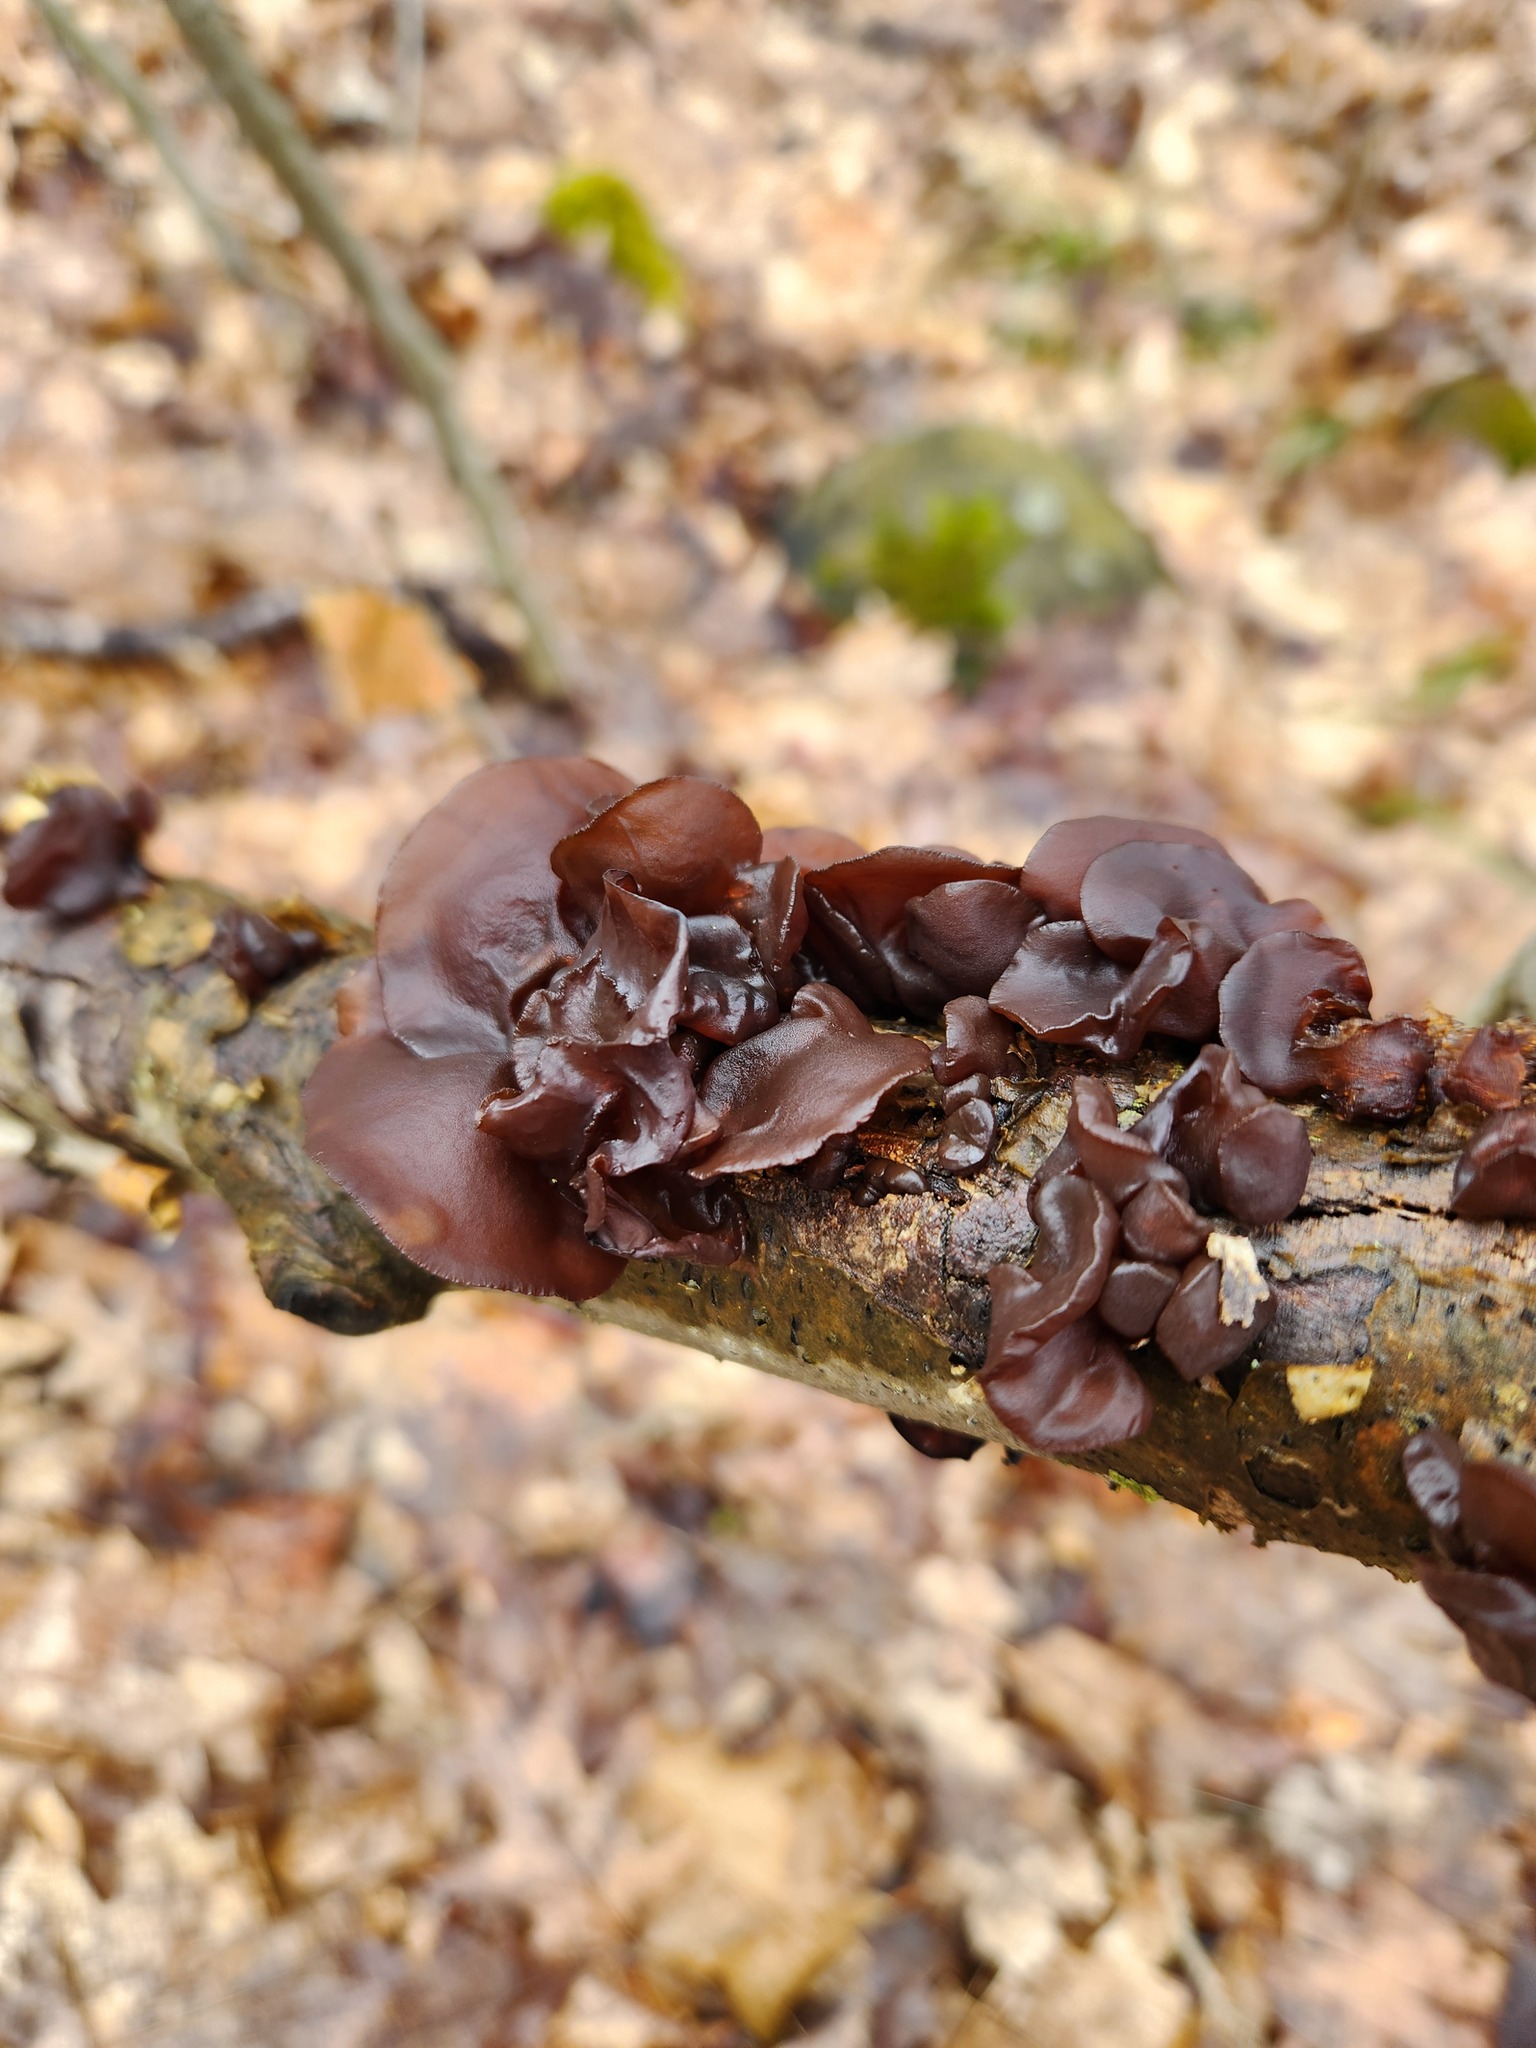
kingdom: Fungi
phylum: Basidiomycota
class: Agaricomycetes
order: Auriculariales
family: Auriculariaceae
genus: Exidia
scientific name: Exidia
